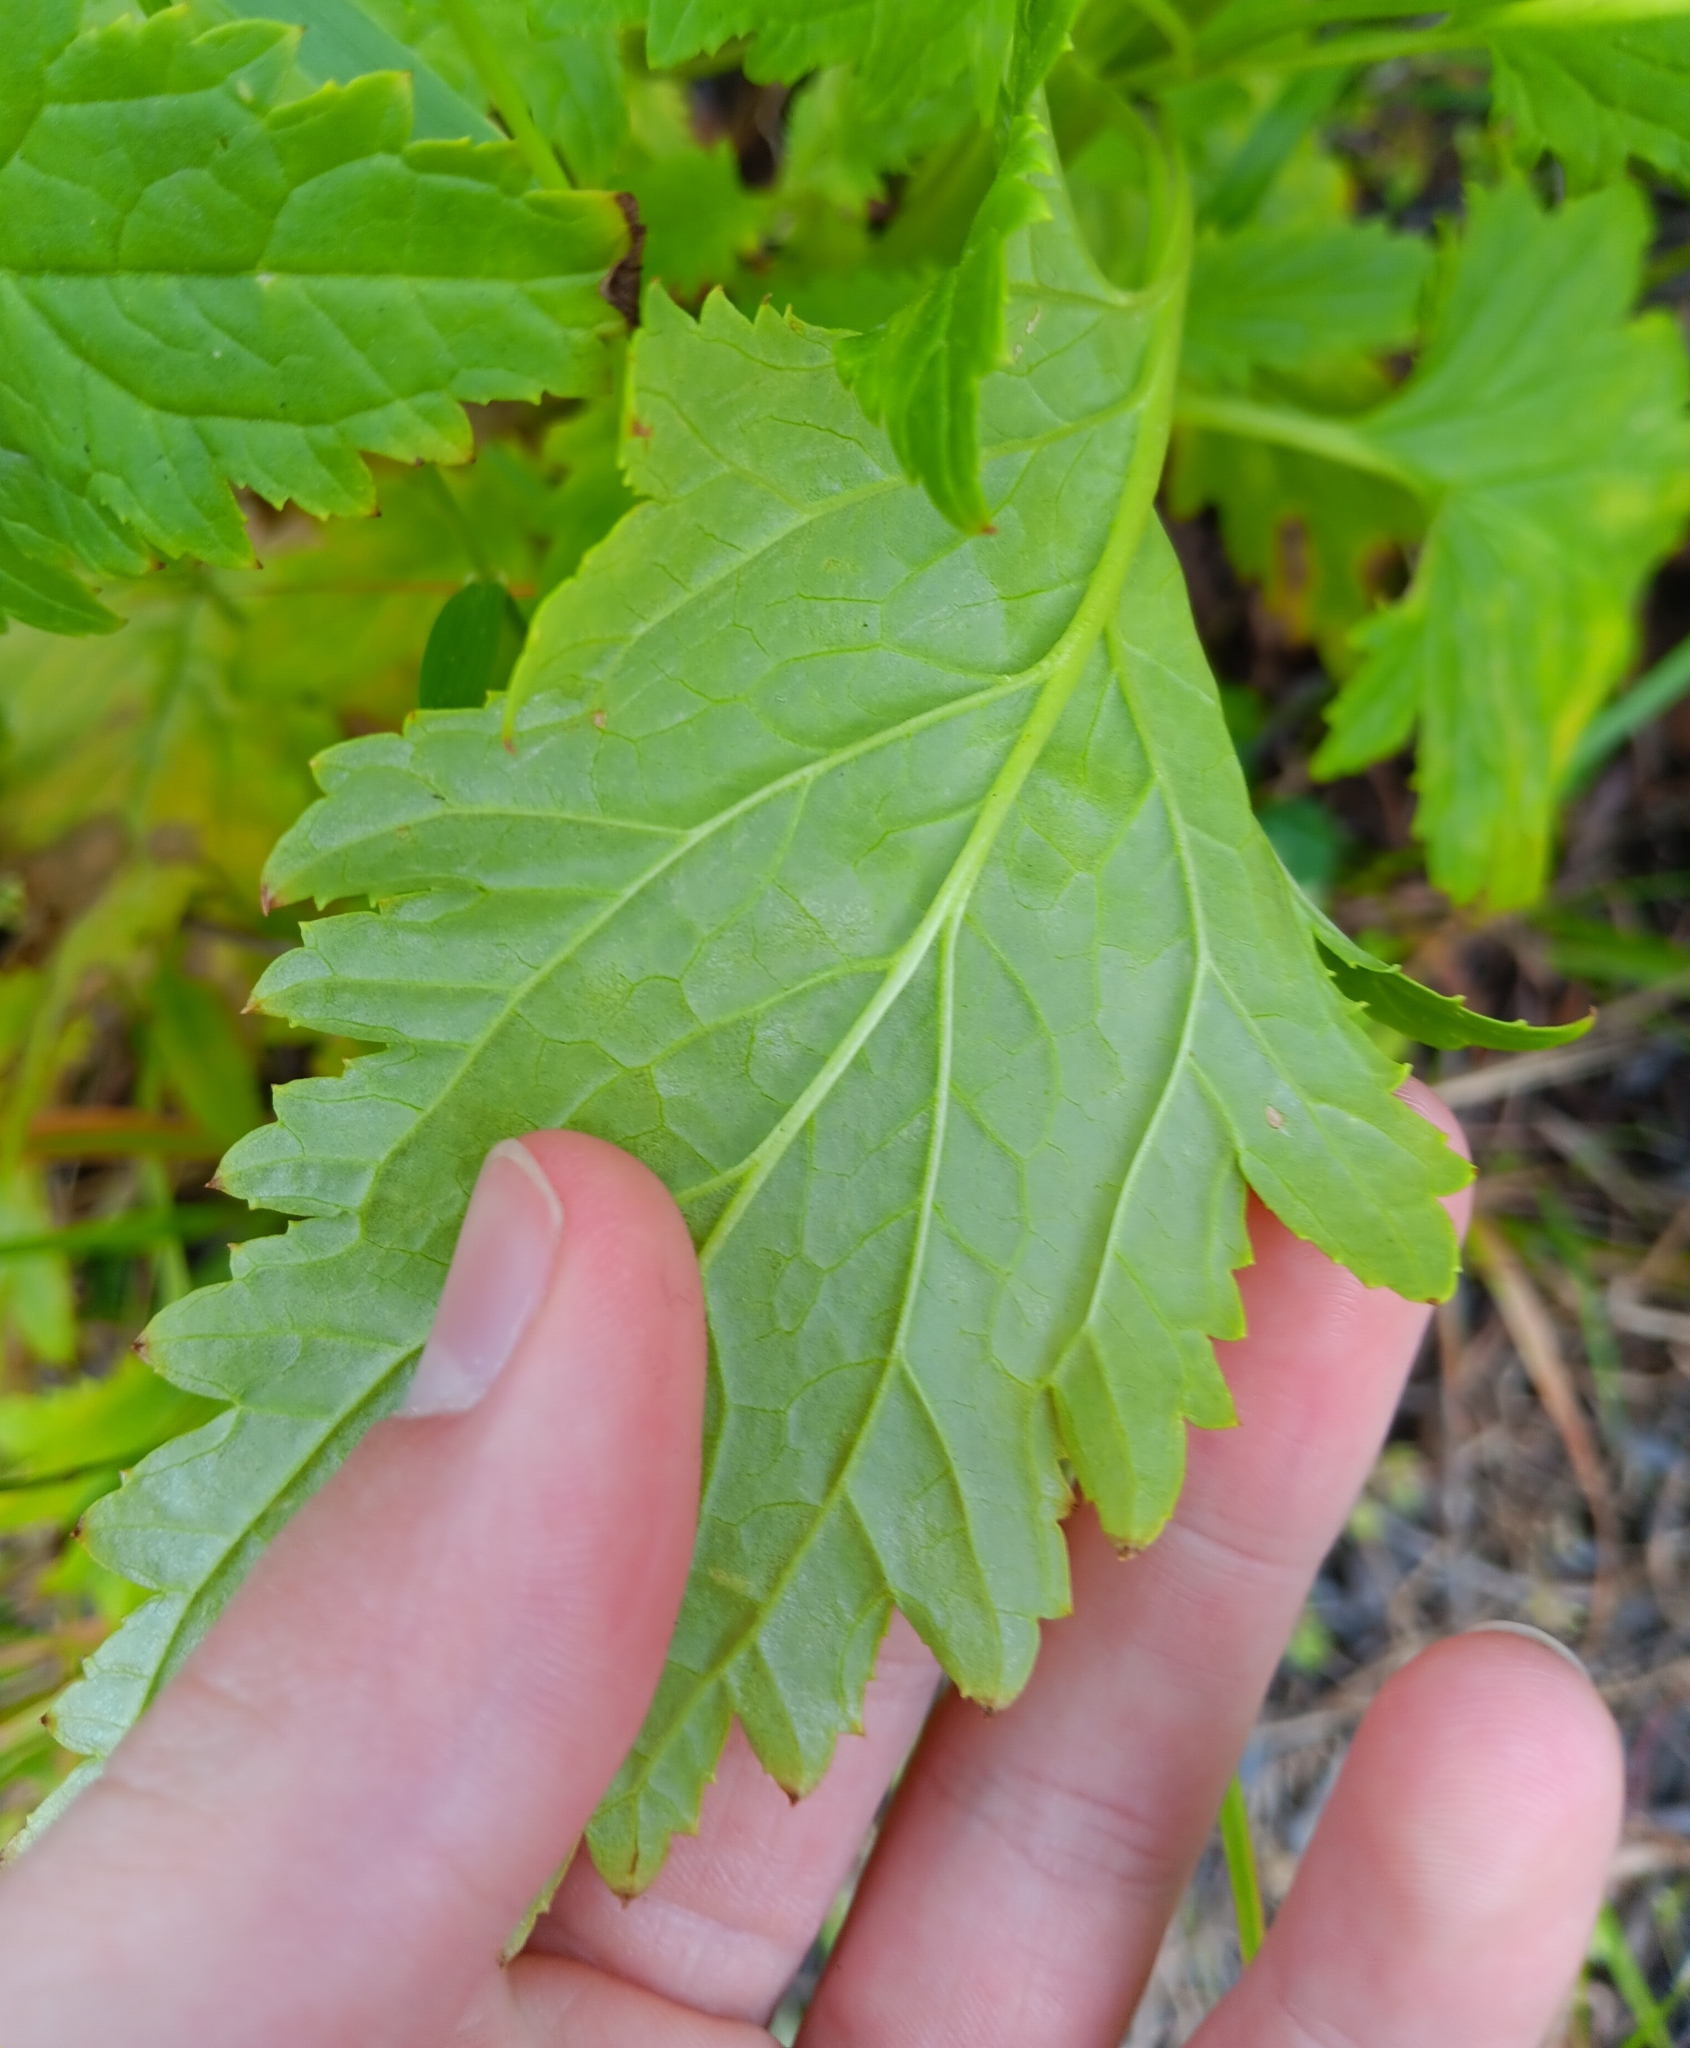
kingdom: Plantae
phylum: Tracheophyta
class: Magnoliopsida
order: Lamiales
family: Scrophulariaceae
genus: Scrophularia
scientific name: Scrophularia californica
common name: California figwort
